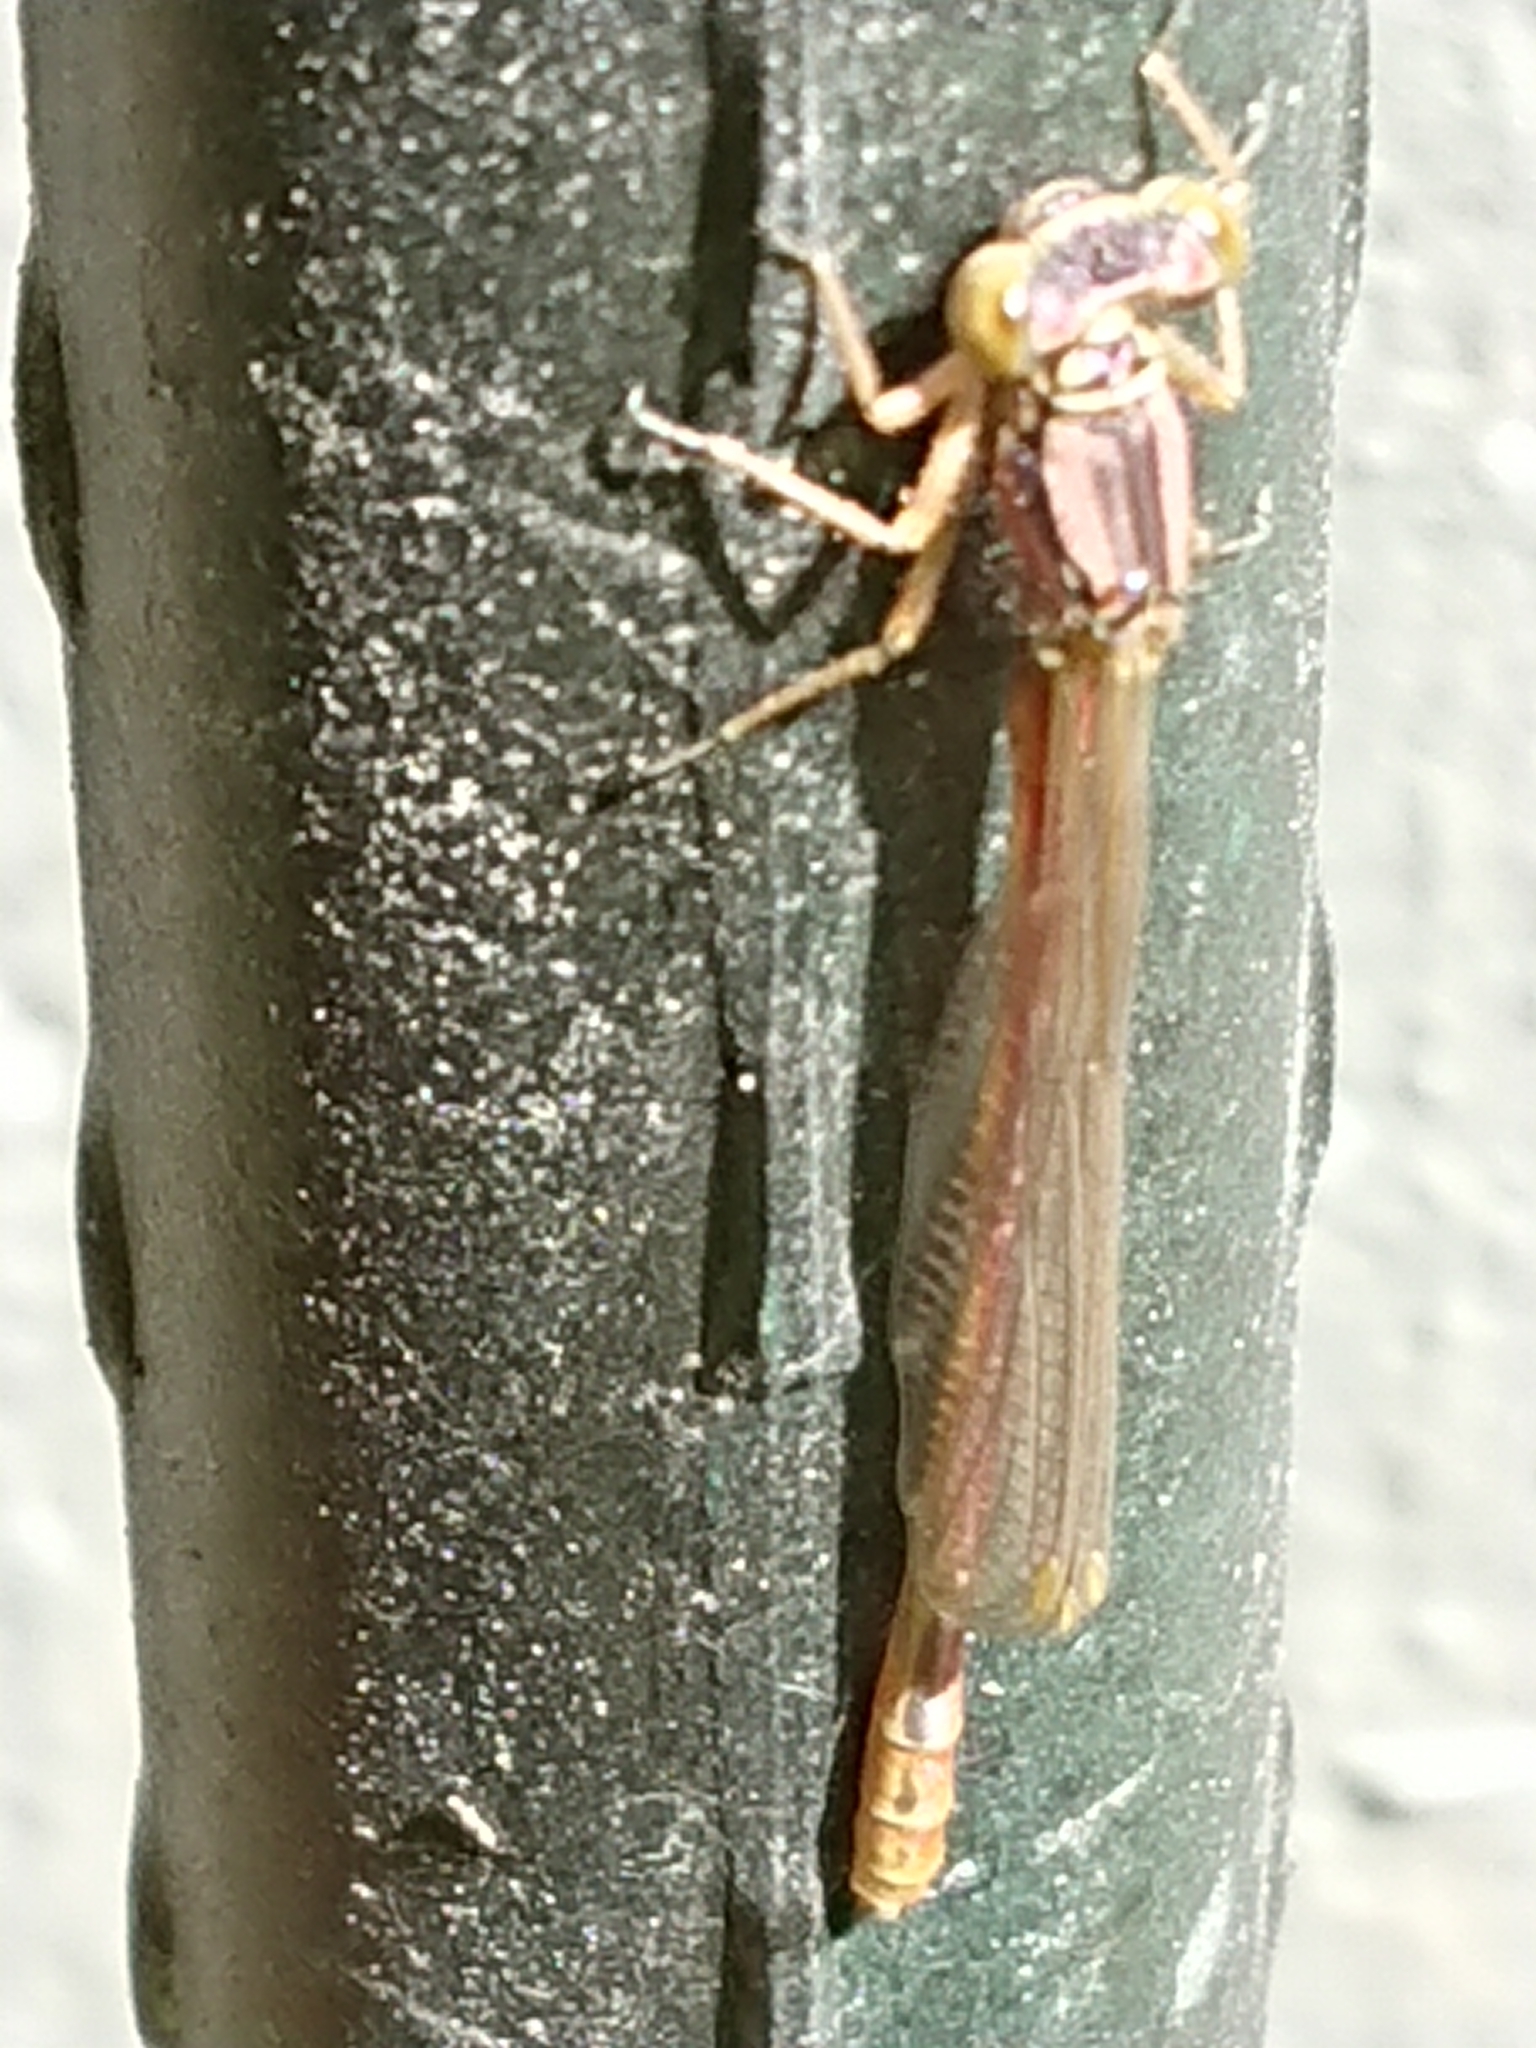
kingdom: Animalia
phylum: Arthropoda
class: Insecta
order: Odonata
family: Coenagrionidae
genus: Xanthocnemis
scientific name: Xanthocnemis zealandica
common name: Common redcoat damselfly
